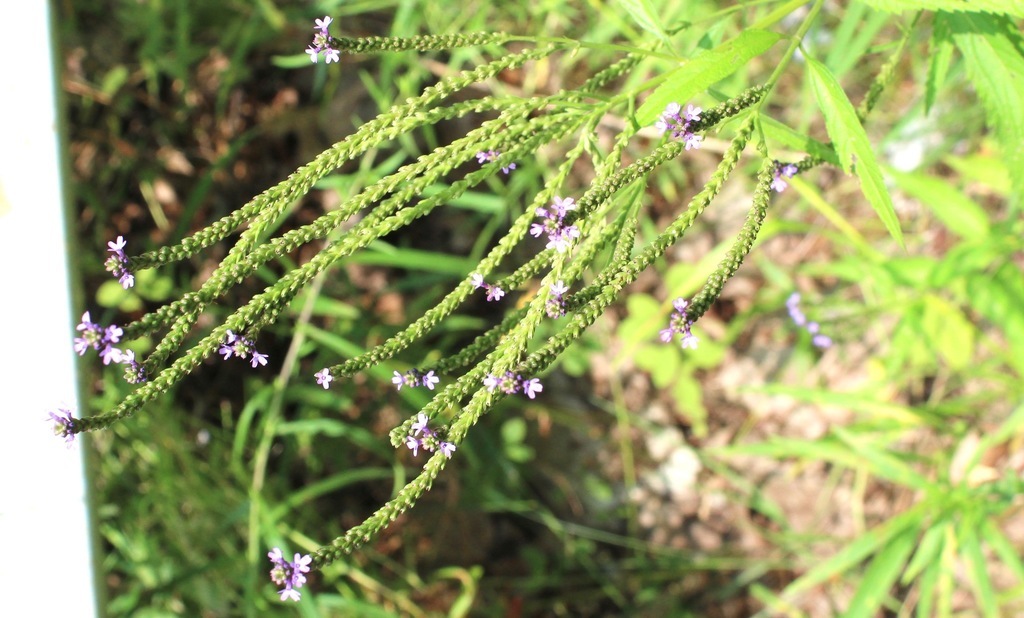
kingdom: Plantae
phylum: Tracheophyta
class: Magnoliopsida
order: Lamiales
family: Verbenaceae
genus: Verbena
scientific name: Verbena hastata
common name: American blue vervain
